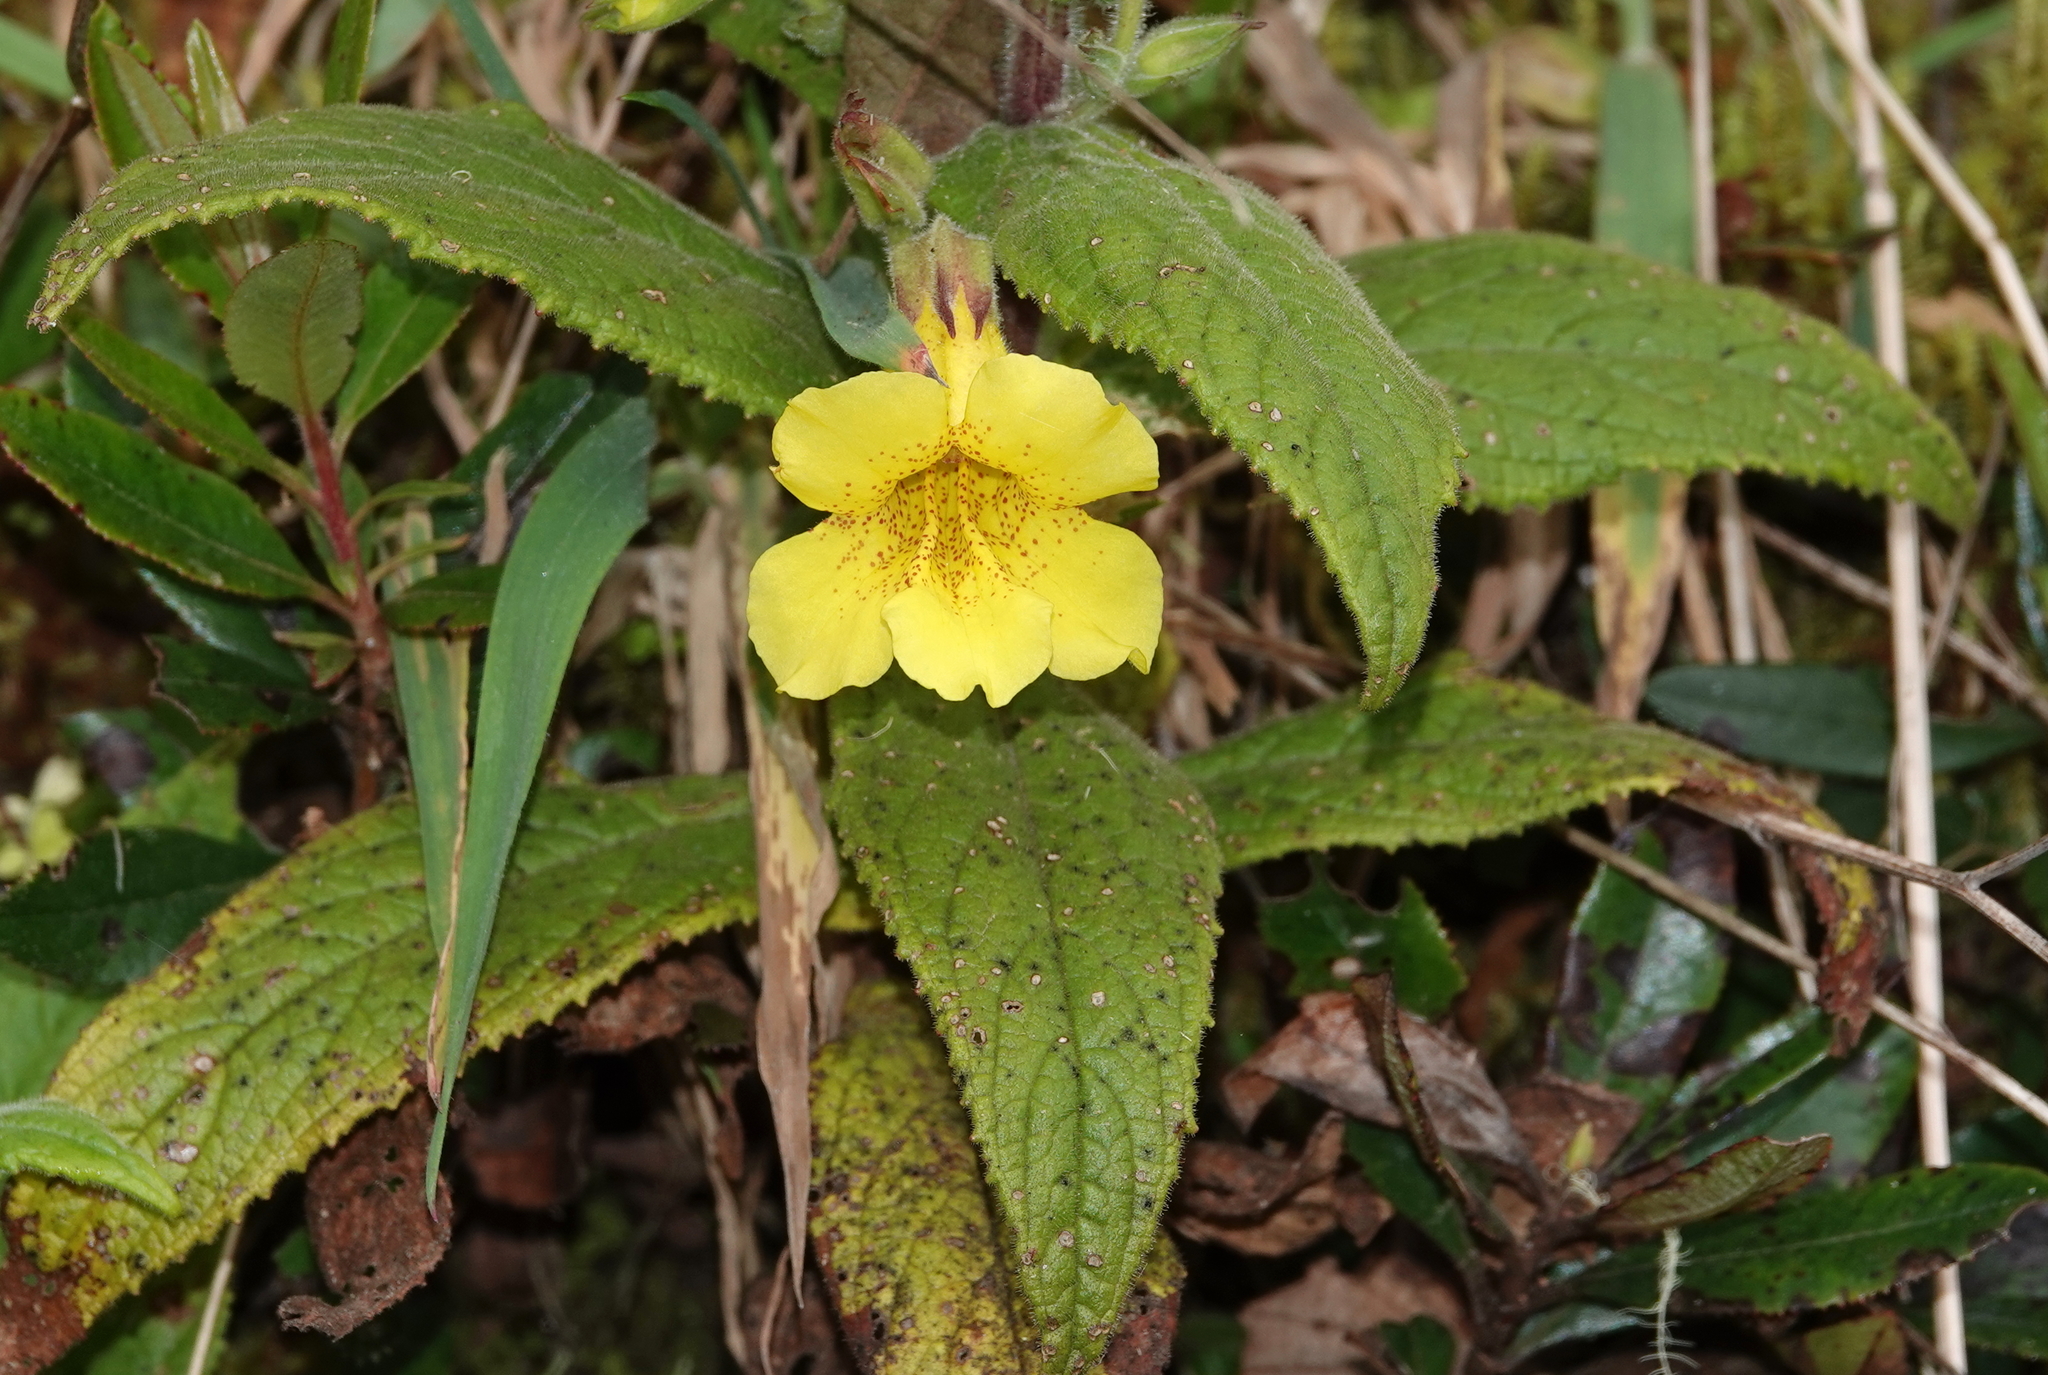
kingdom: Plantae
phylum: Tracheophyta
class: Magnoliopsida
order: Lamiales
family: Phrymaceae
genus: Hemichaena
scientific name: Hemichaena fruticosa
